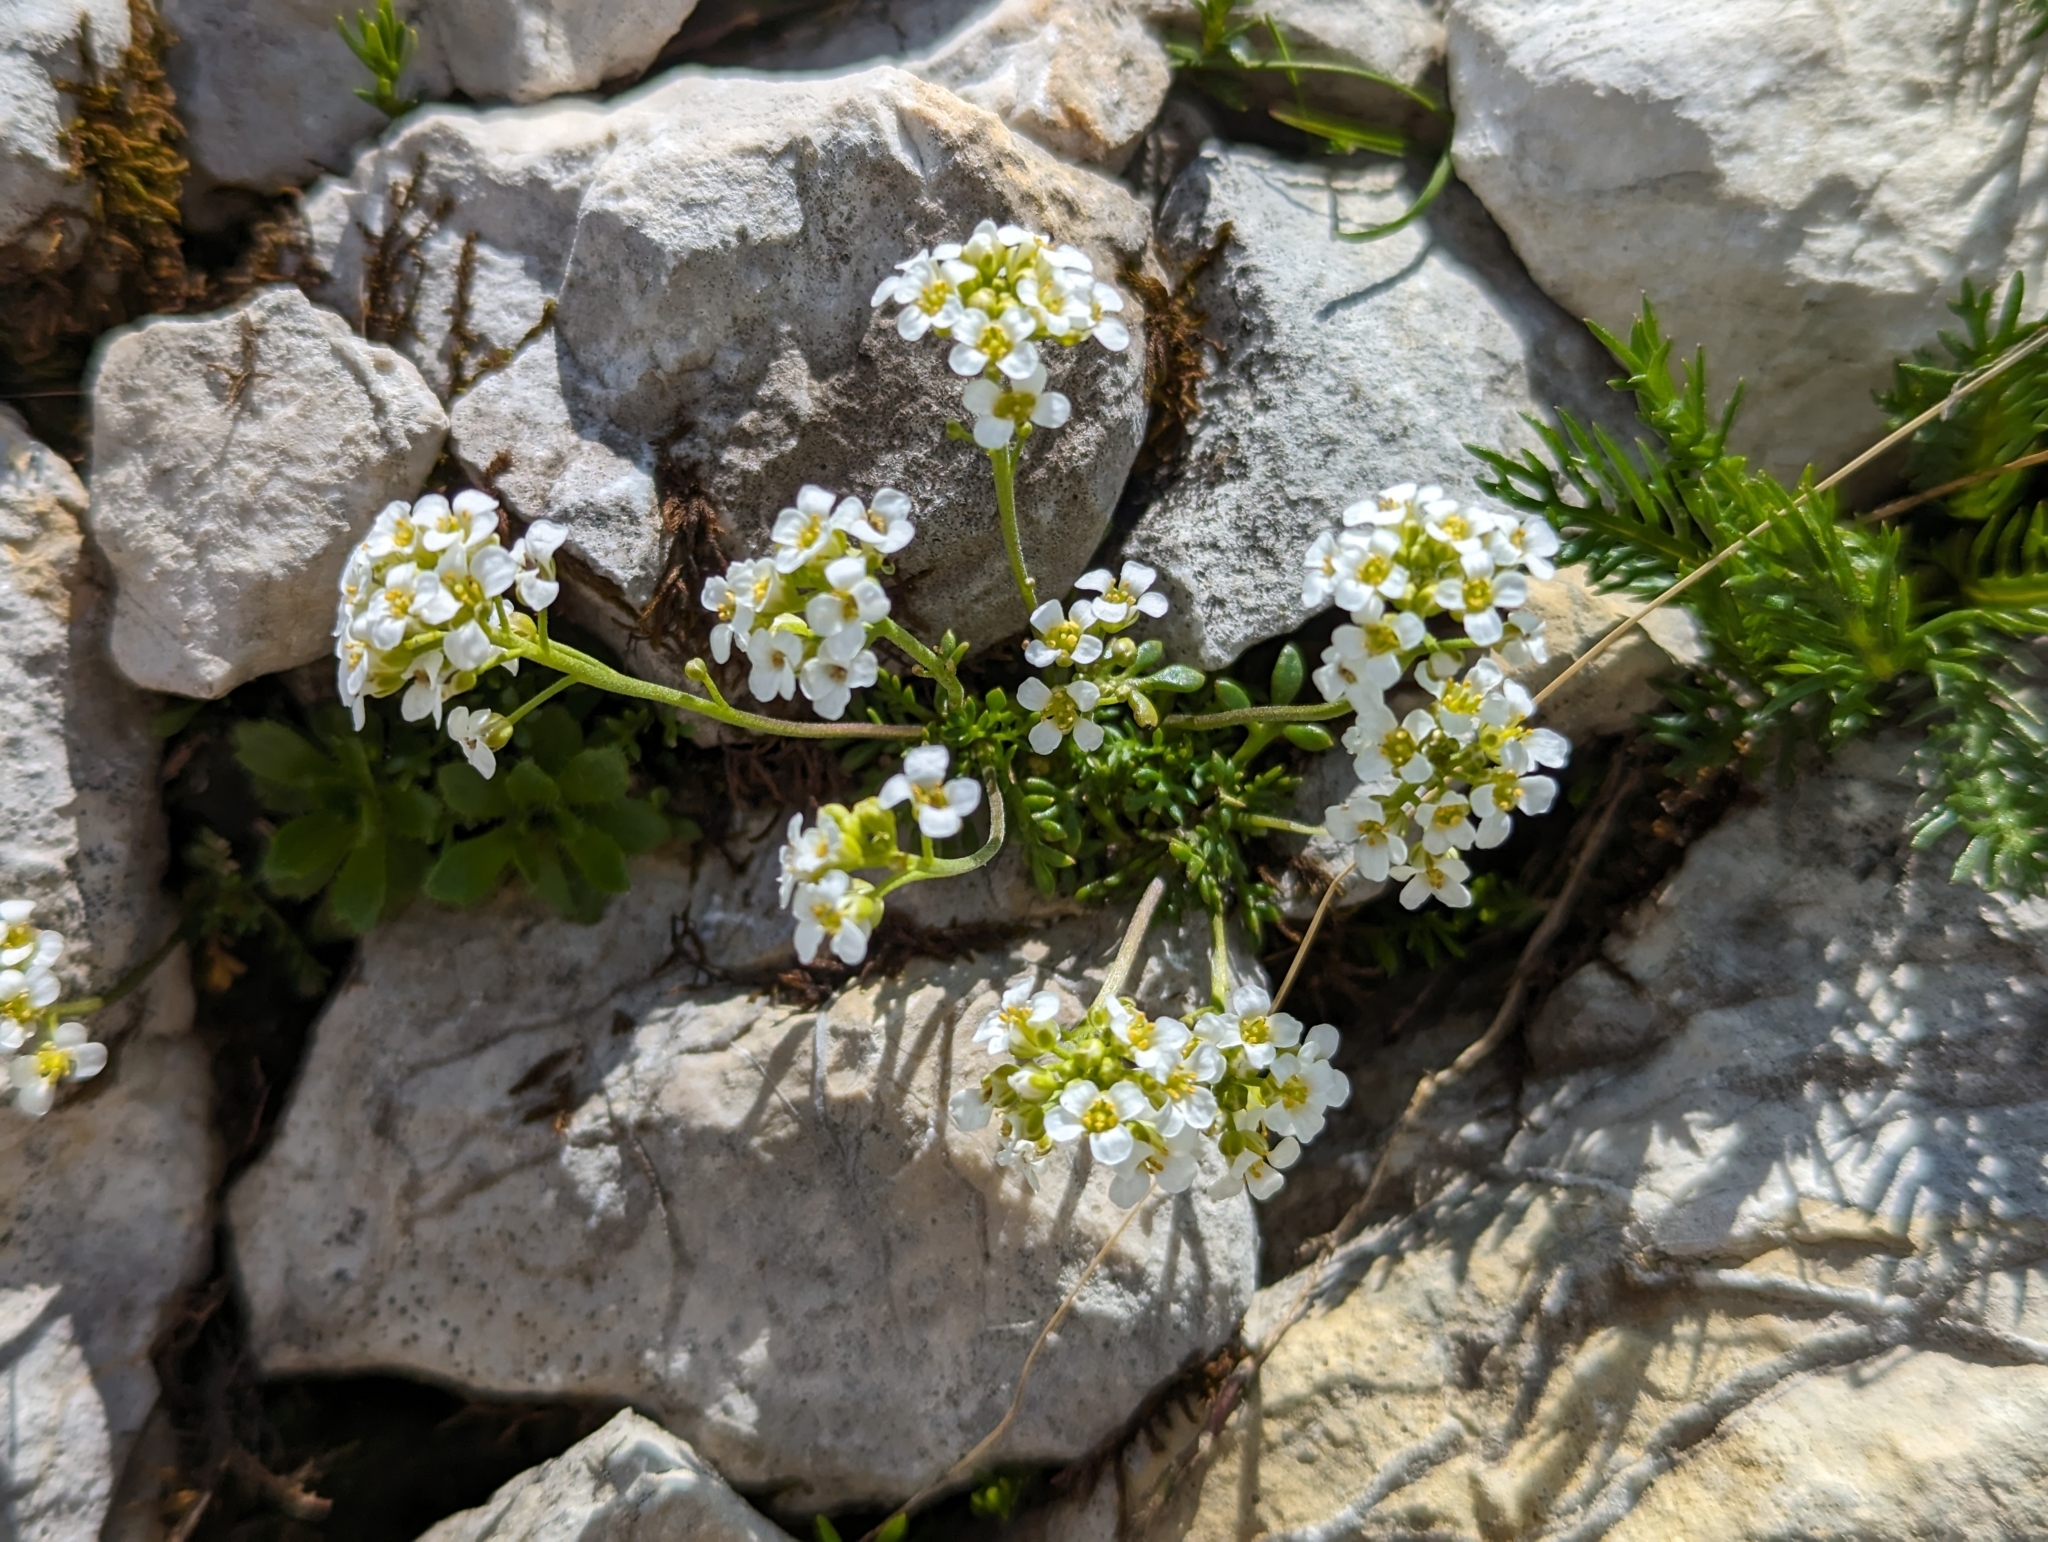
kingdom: Plantae
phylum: Tracheophyta
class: Magnoliopsida
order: Brassicales
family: Brassicaceae
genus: Hornungia
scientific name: Hornungia alpina
